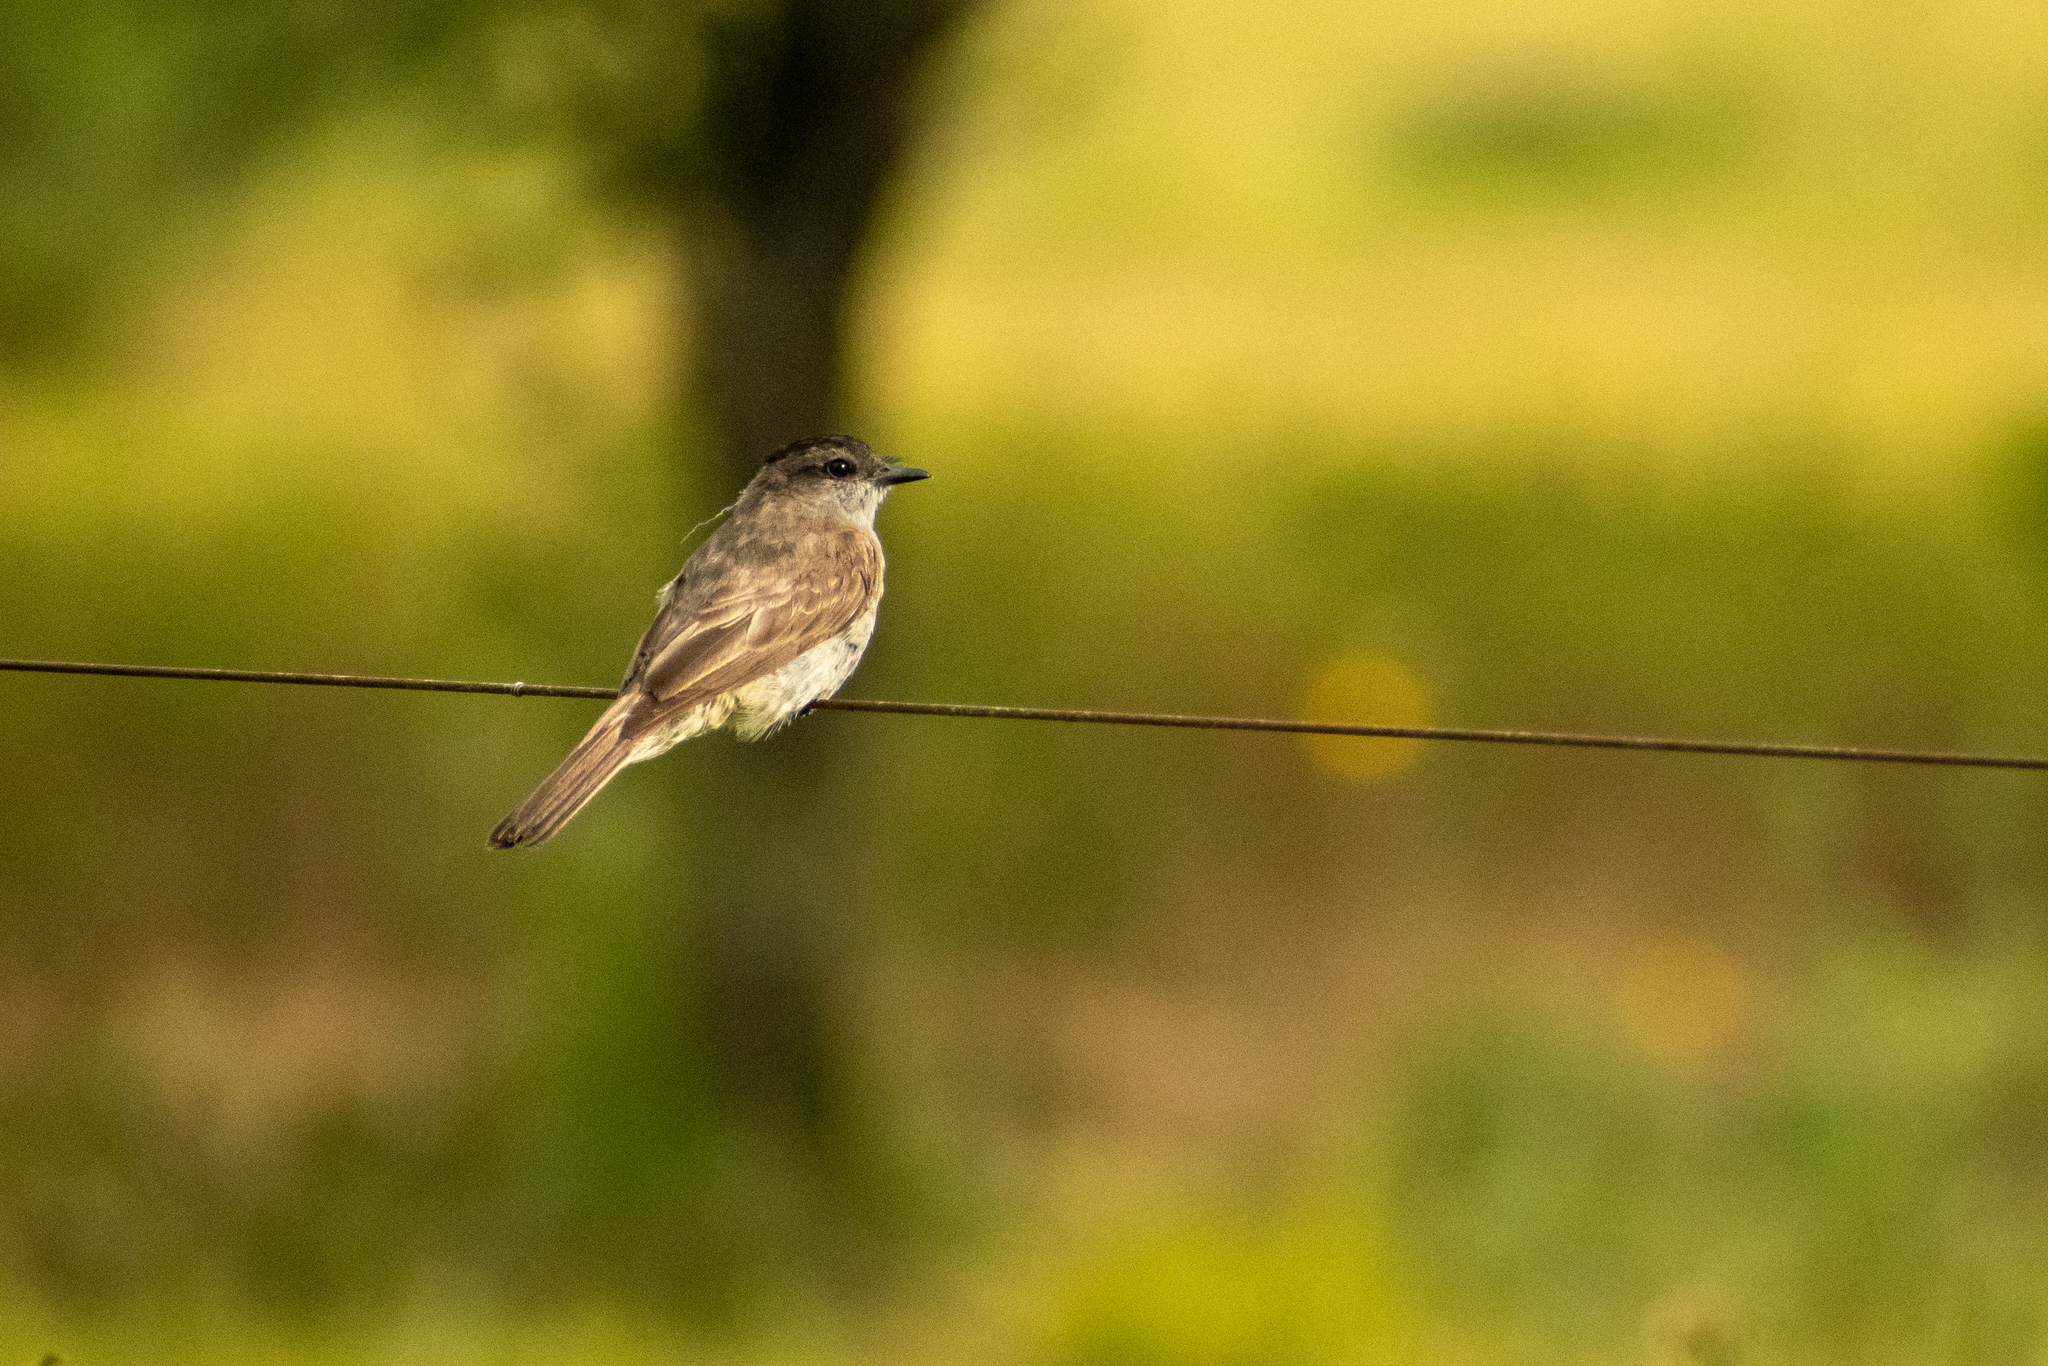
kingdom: Animalia
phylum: Chordata
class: Aves
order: Passeriformes
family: Tyrannidae
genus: Empidonomus
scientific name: Empidonomus aurantioatrocristatus
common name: Crowned slaty flycatcher
